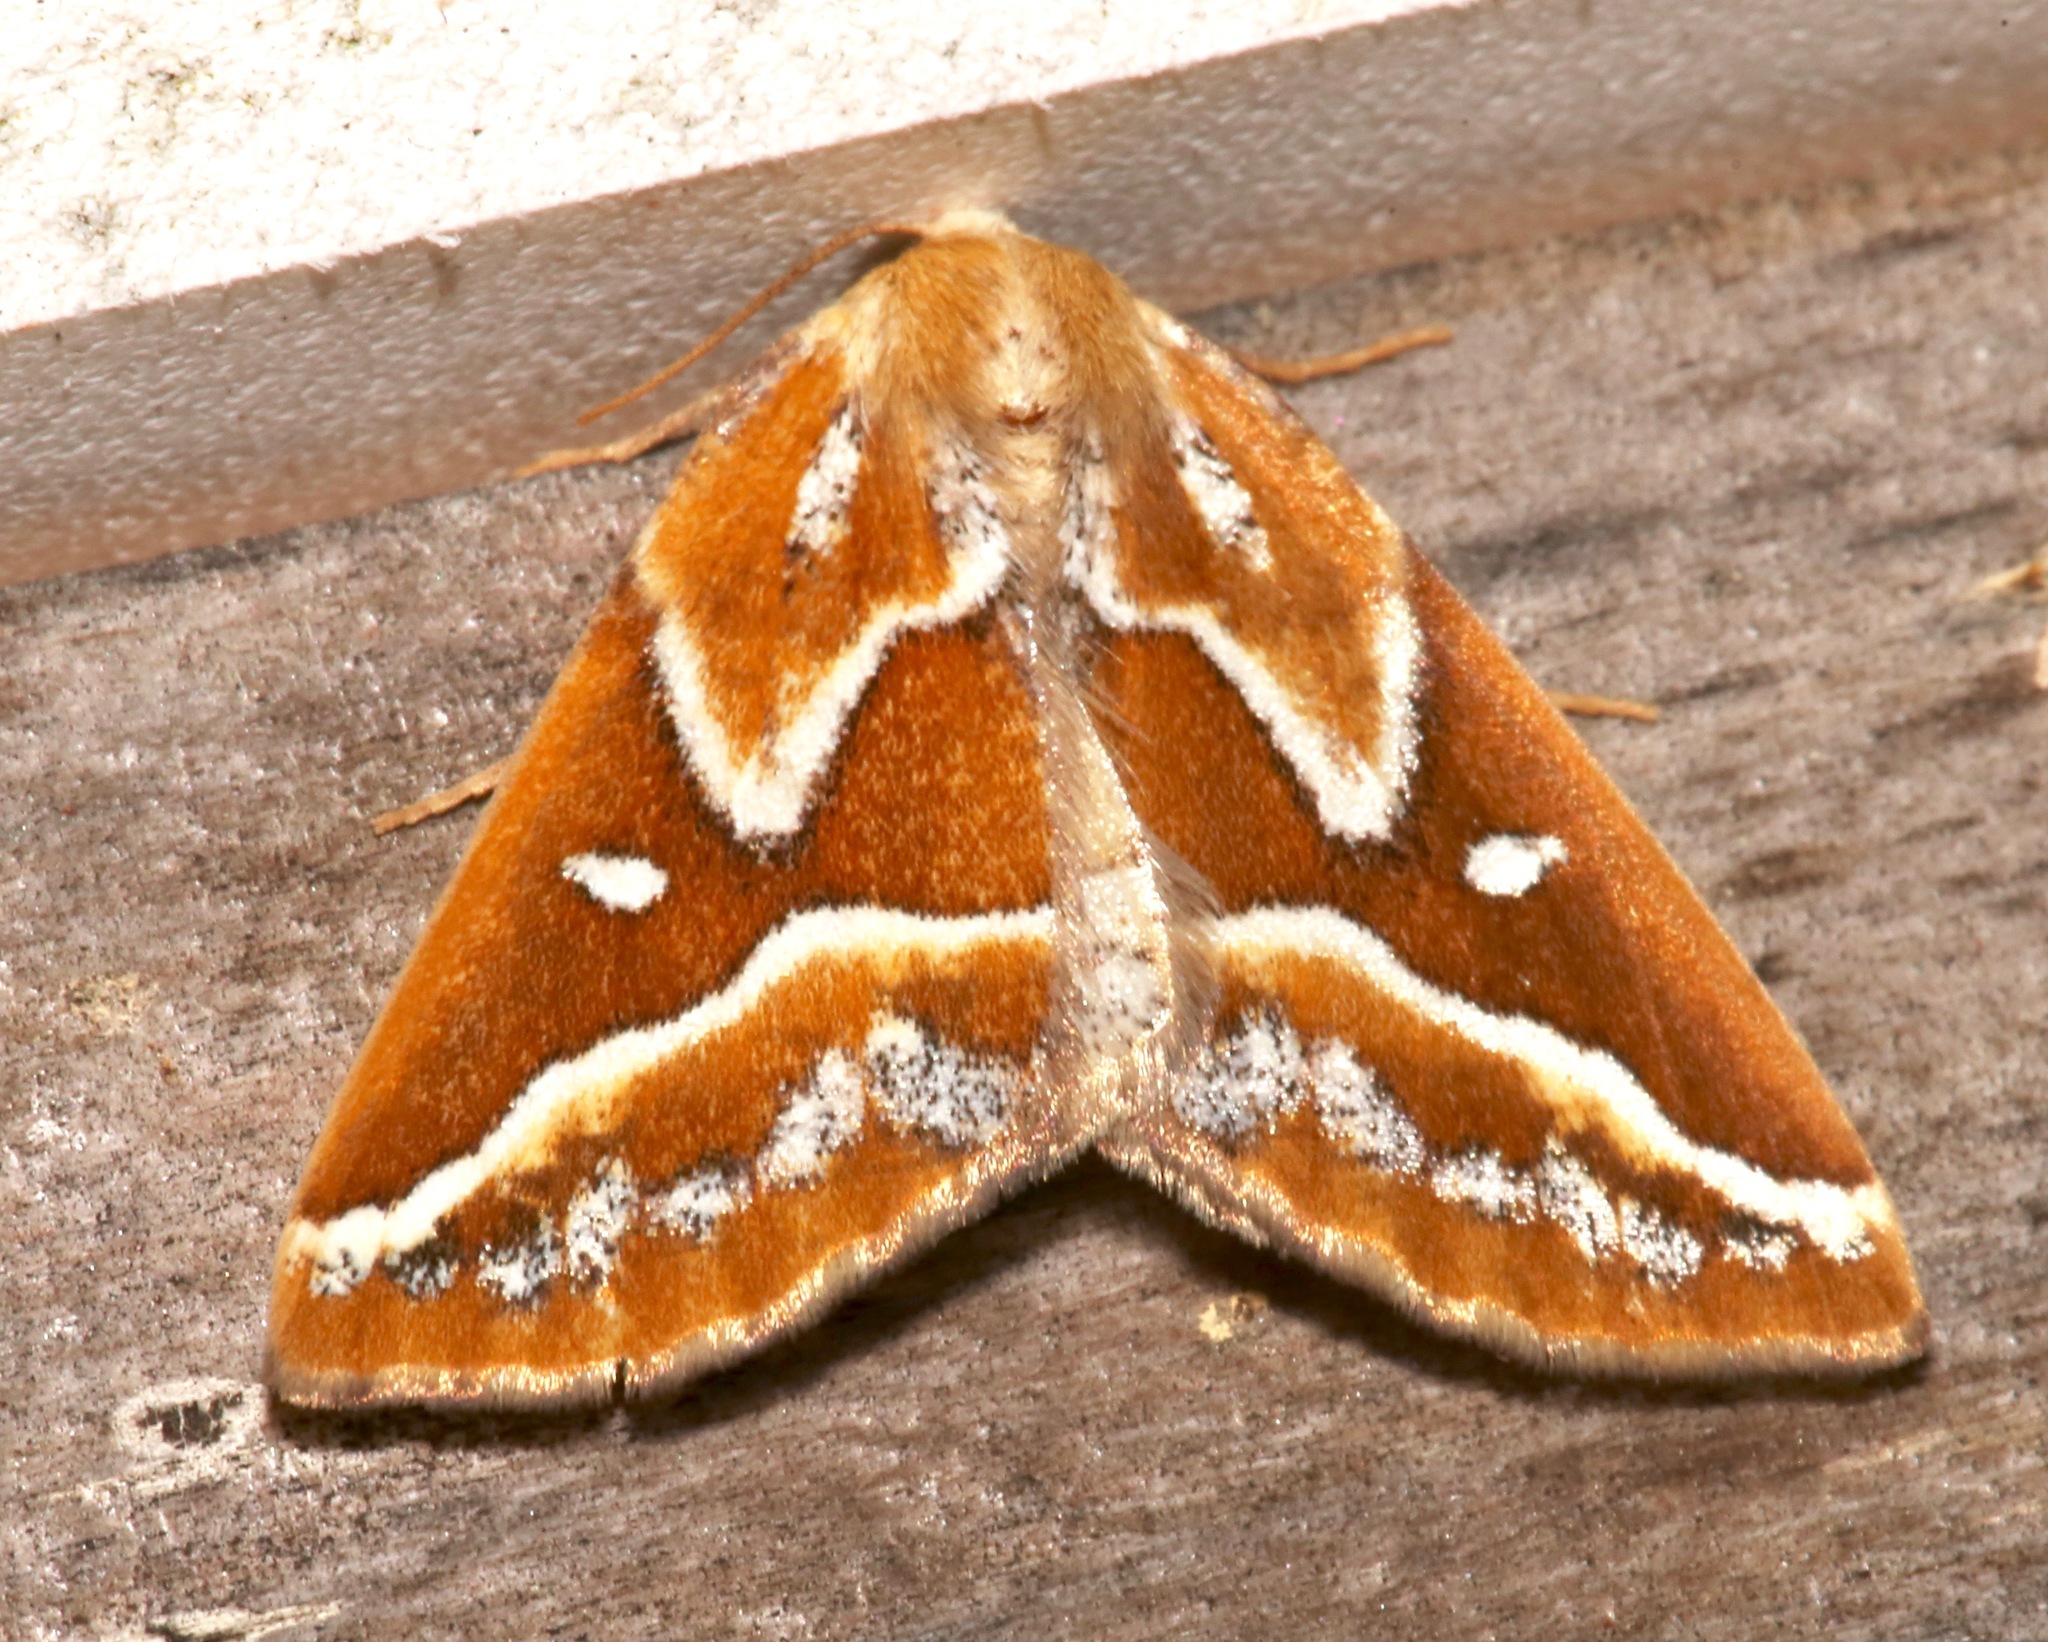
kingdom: Animalia
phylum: Arthropoda
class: Insecta
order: Lepidoptera
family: Geometridae
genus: Caripeta
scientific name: Caripeta angustiorata
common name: Brown pine looper
